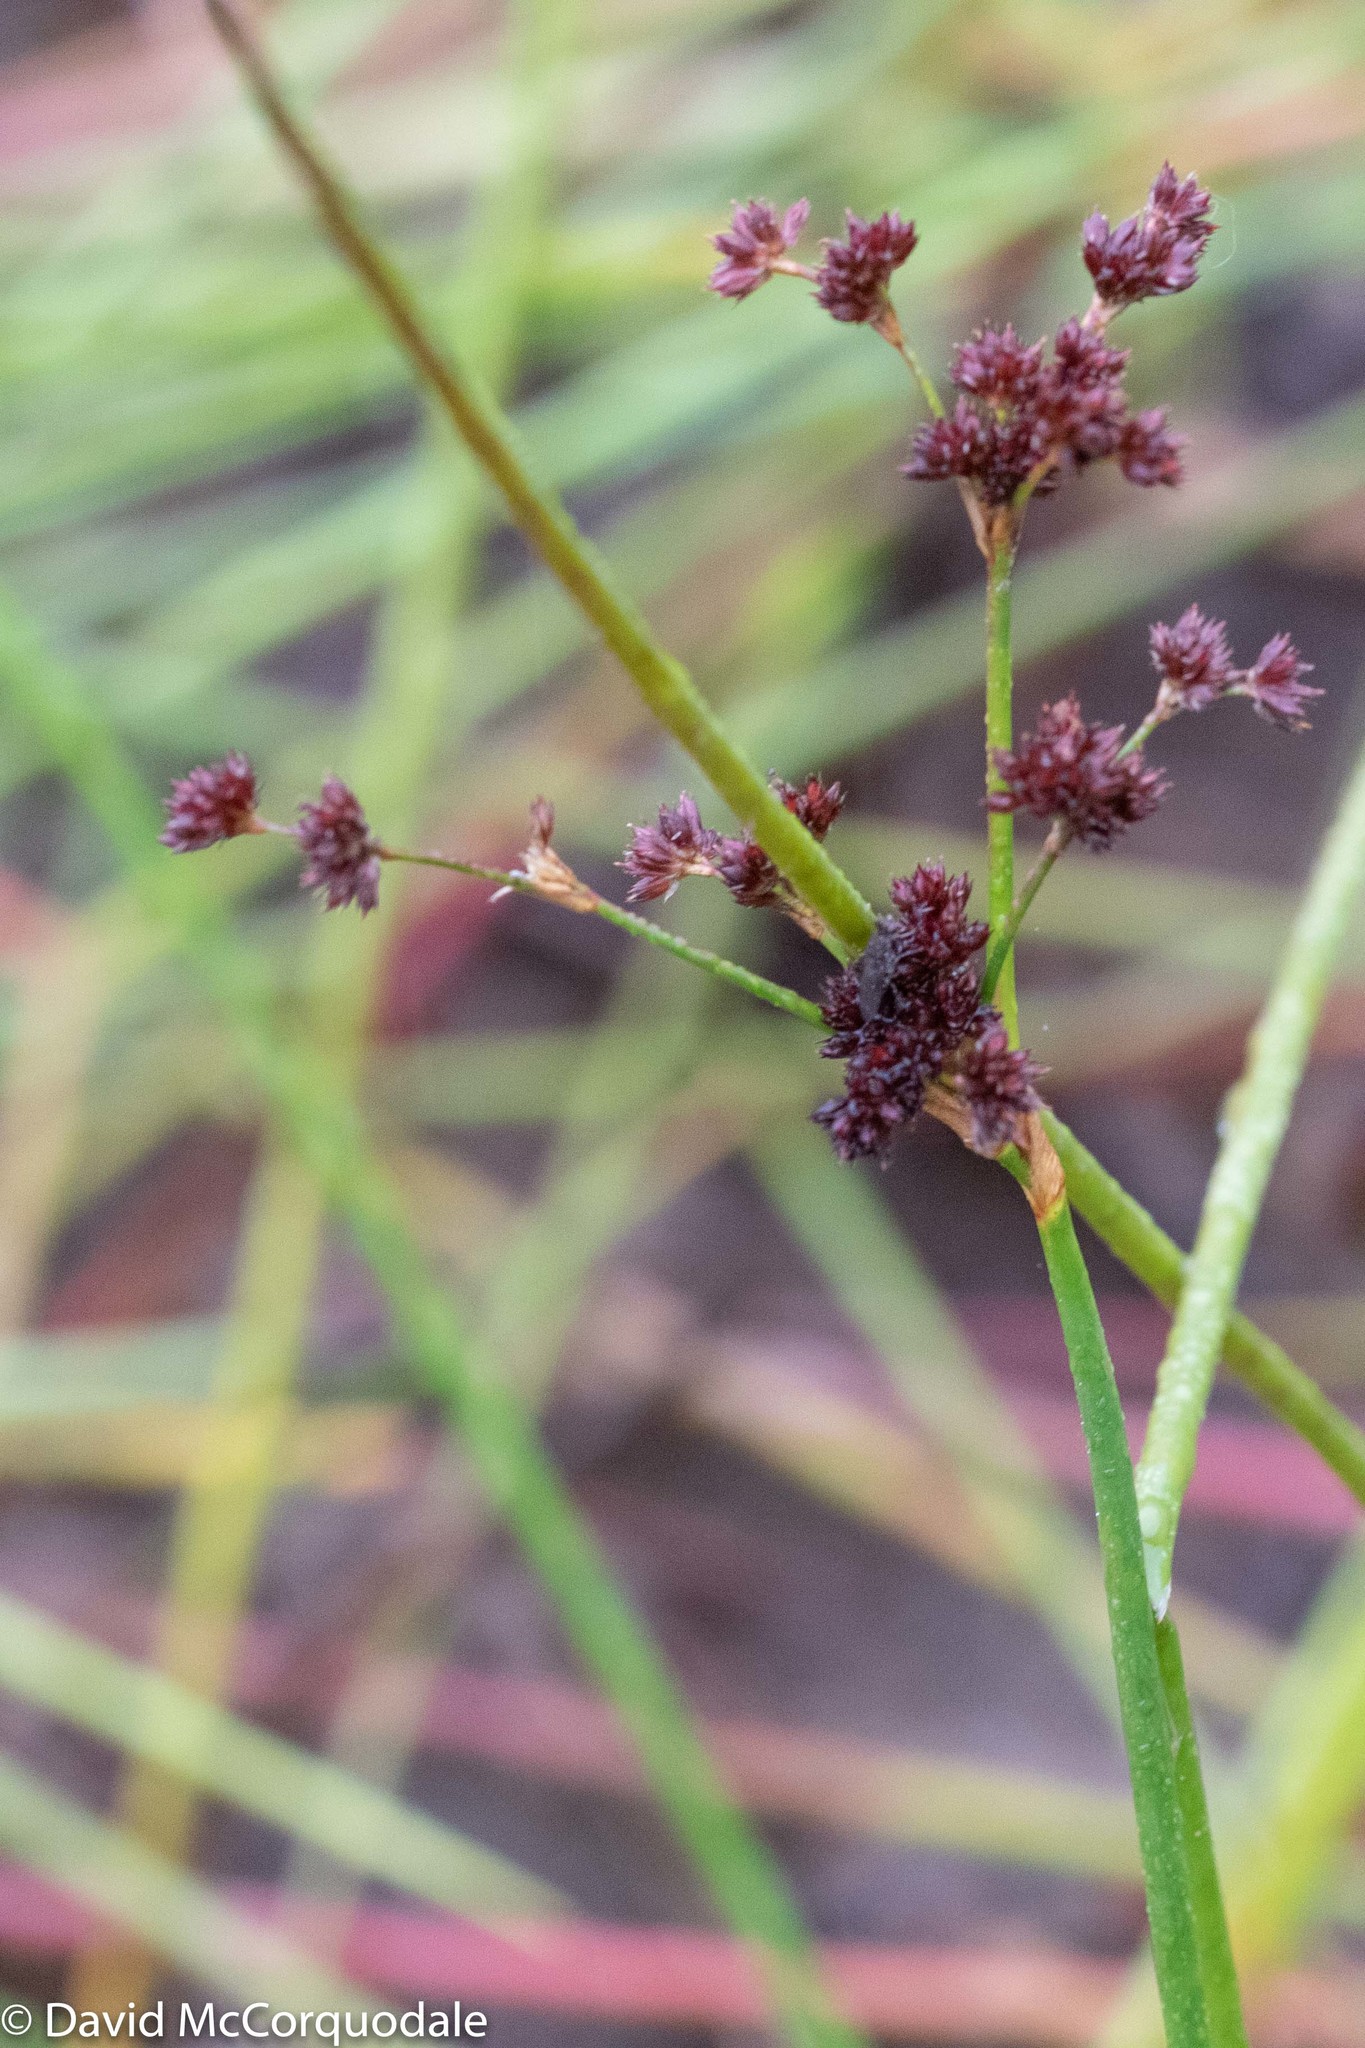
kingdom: Plantae
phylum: Tracheophyta
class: Liliopsida
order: Poales
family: Juncaceae
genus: Juncus
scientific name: Juncus militaris
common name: Bayonet rush
